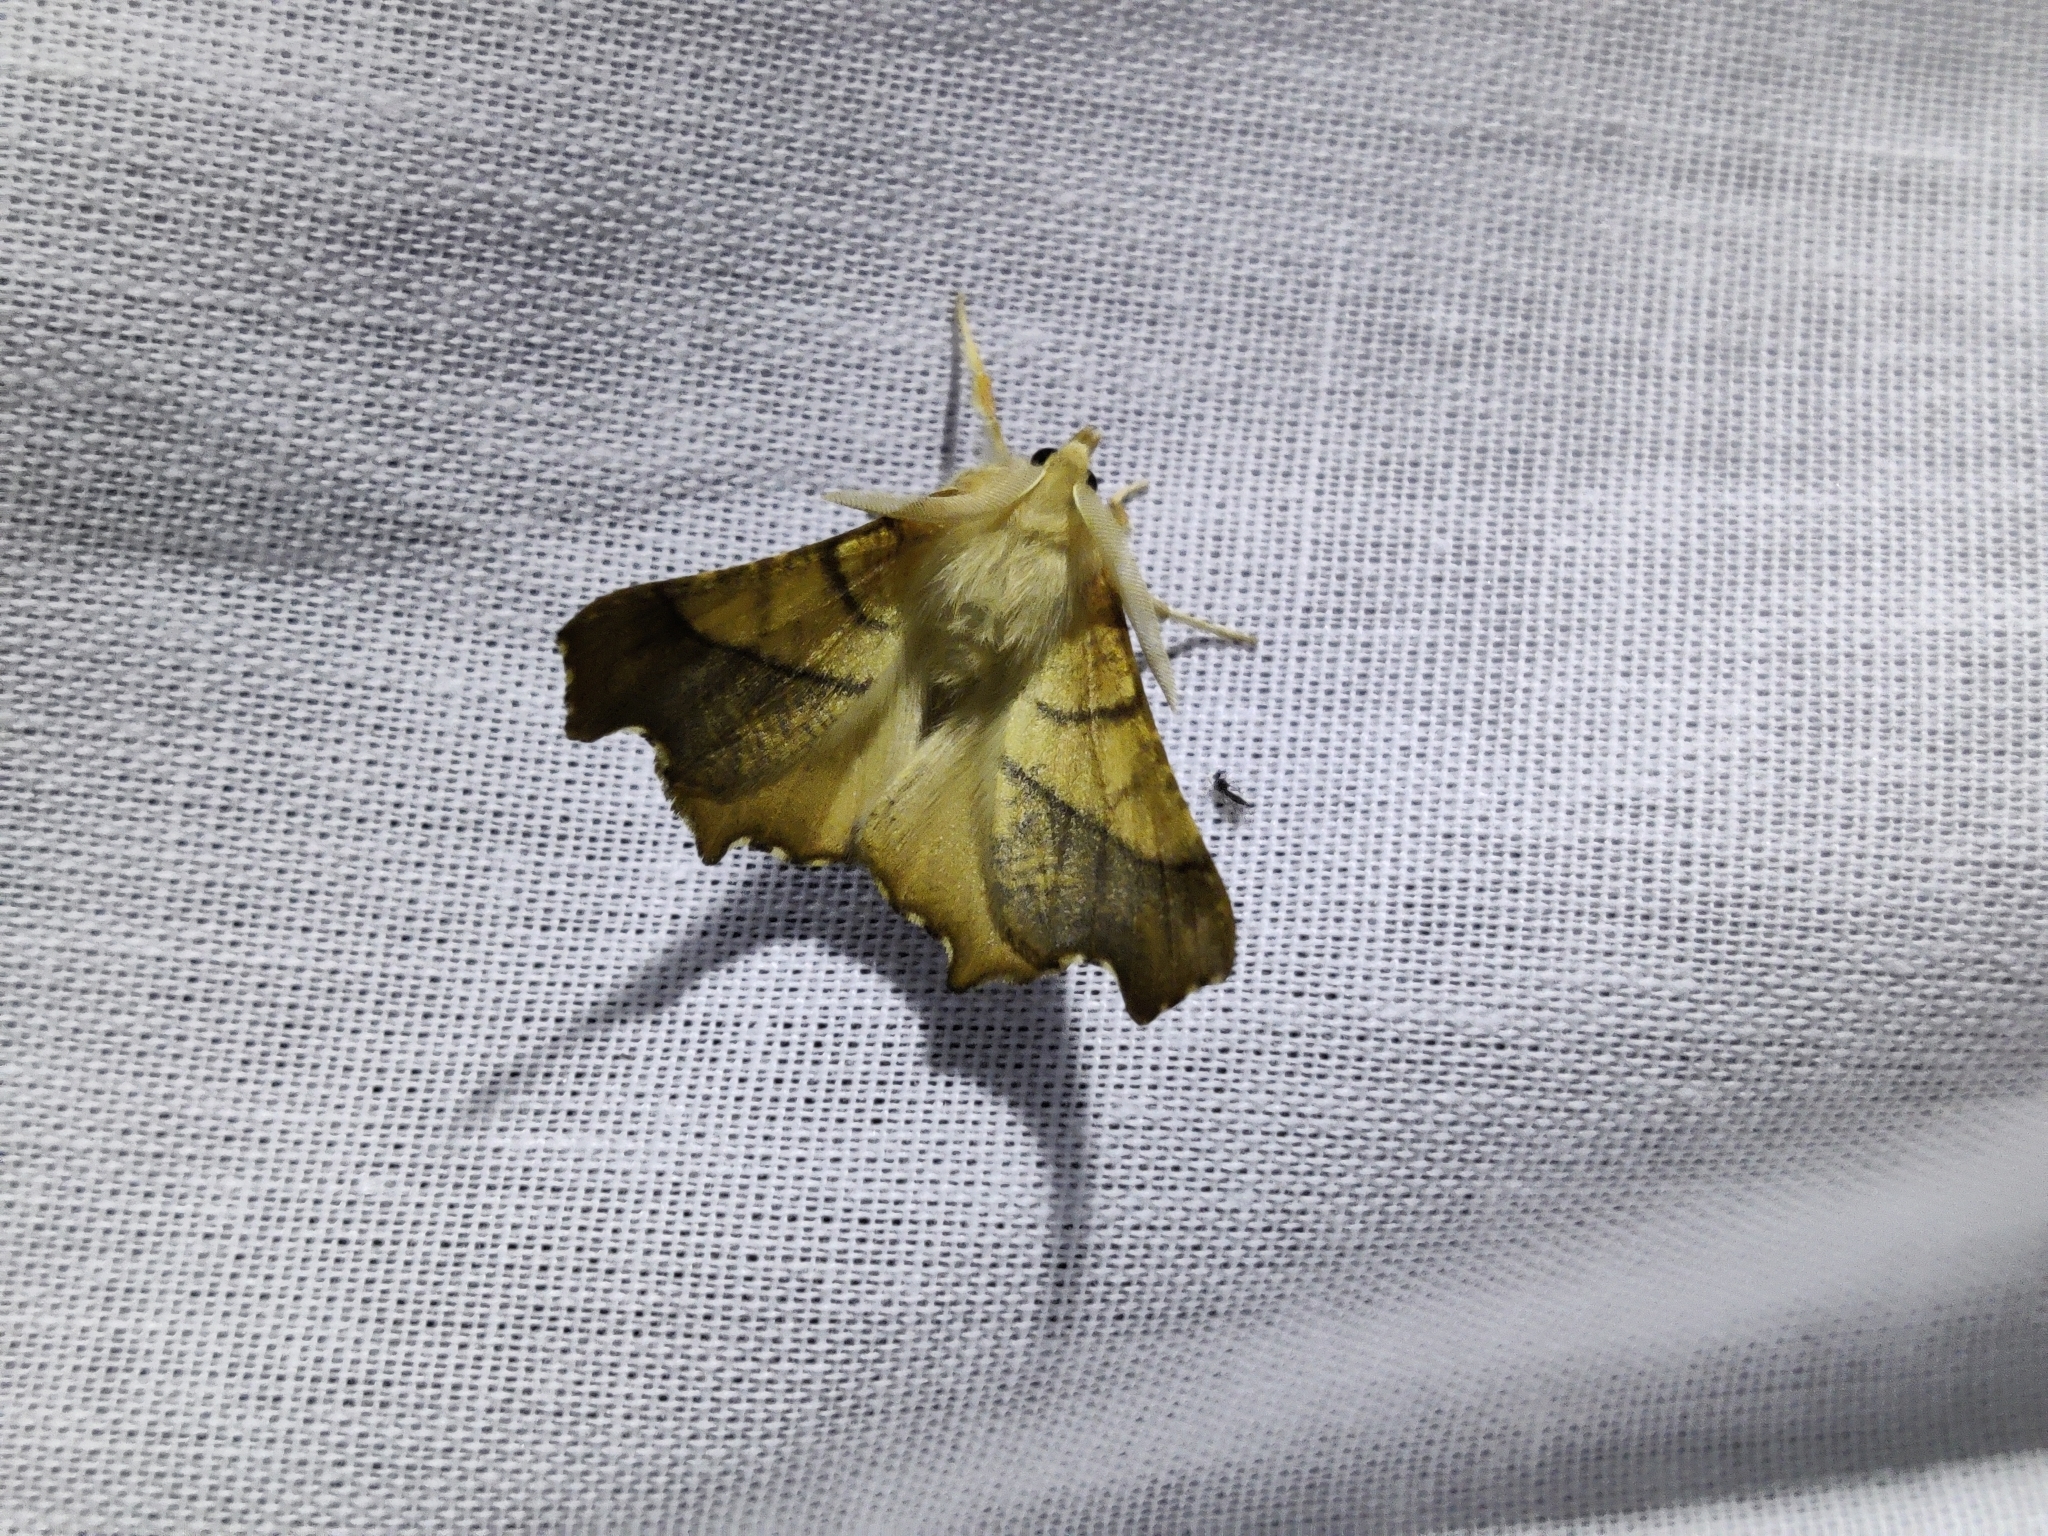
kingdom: Animalia
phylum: Arthropoda
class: Insecta
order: Lepidoptera
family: Geometridae
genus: Ennomos
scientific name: Ennomos fuscantaria
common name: Dusky thorn
